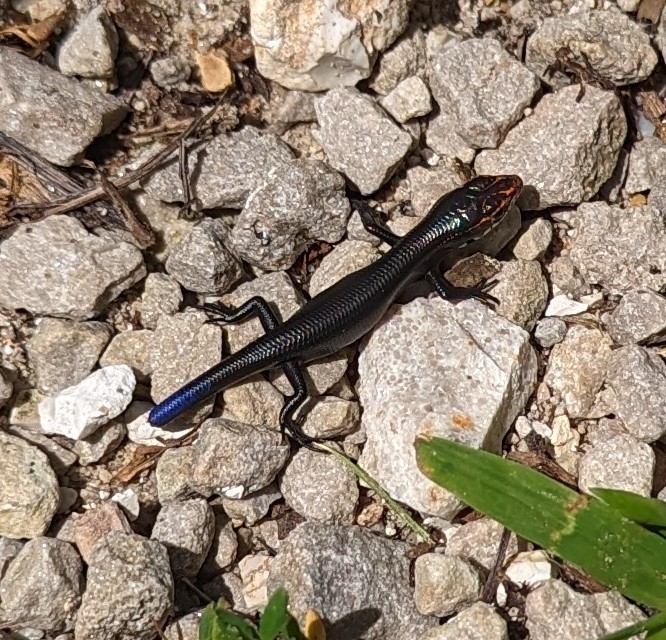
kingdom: Animalia
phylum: Chordata
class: Squamata
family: Scincidae
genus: Plestiodon
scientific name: Plestiodon anthracinus
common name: Coal skink
